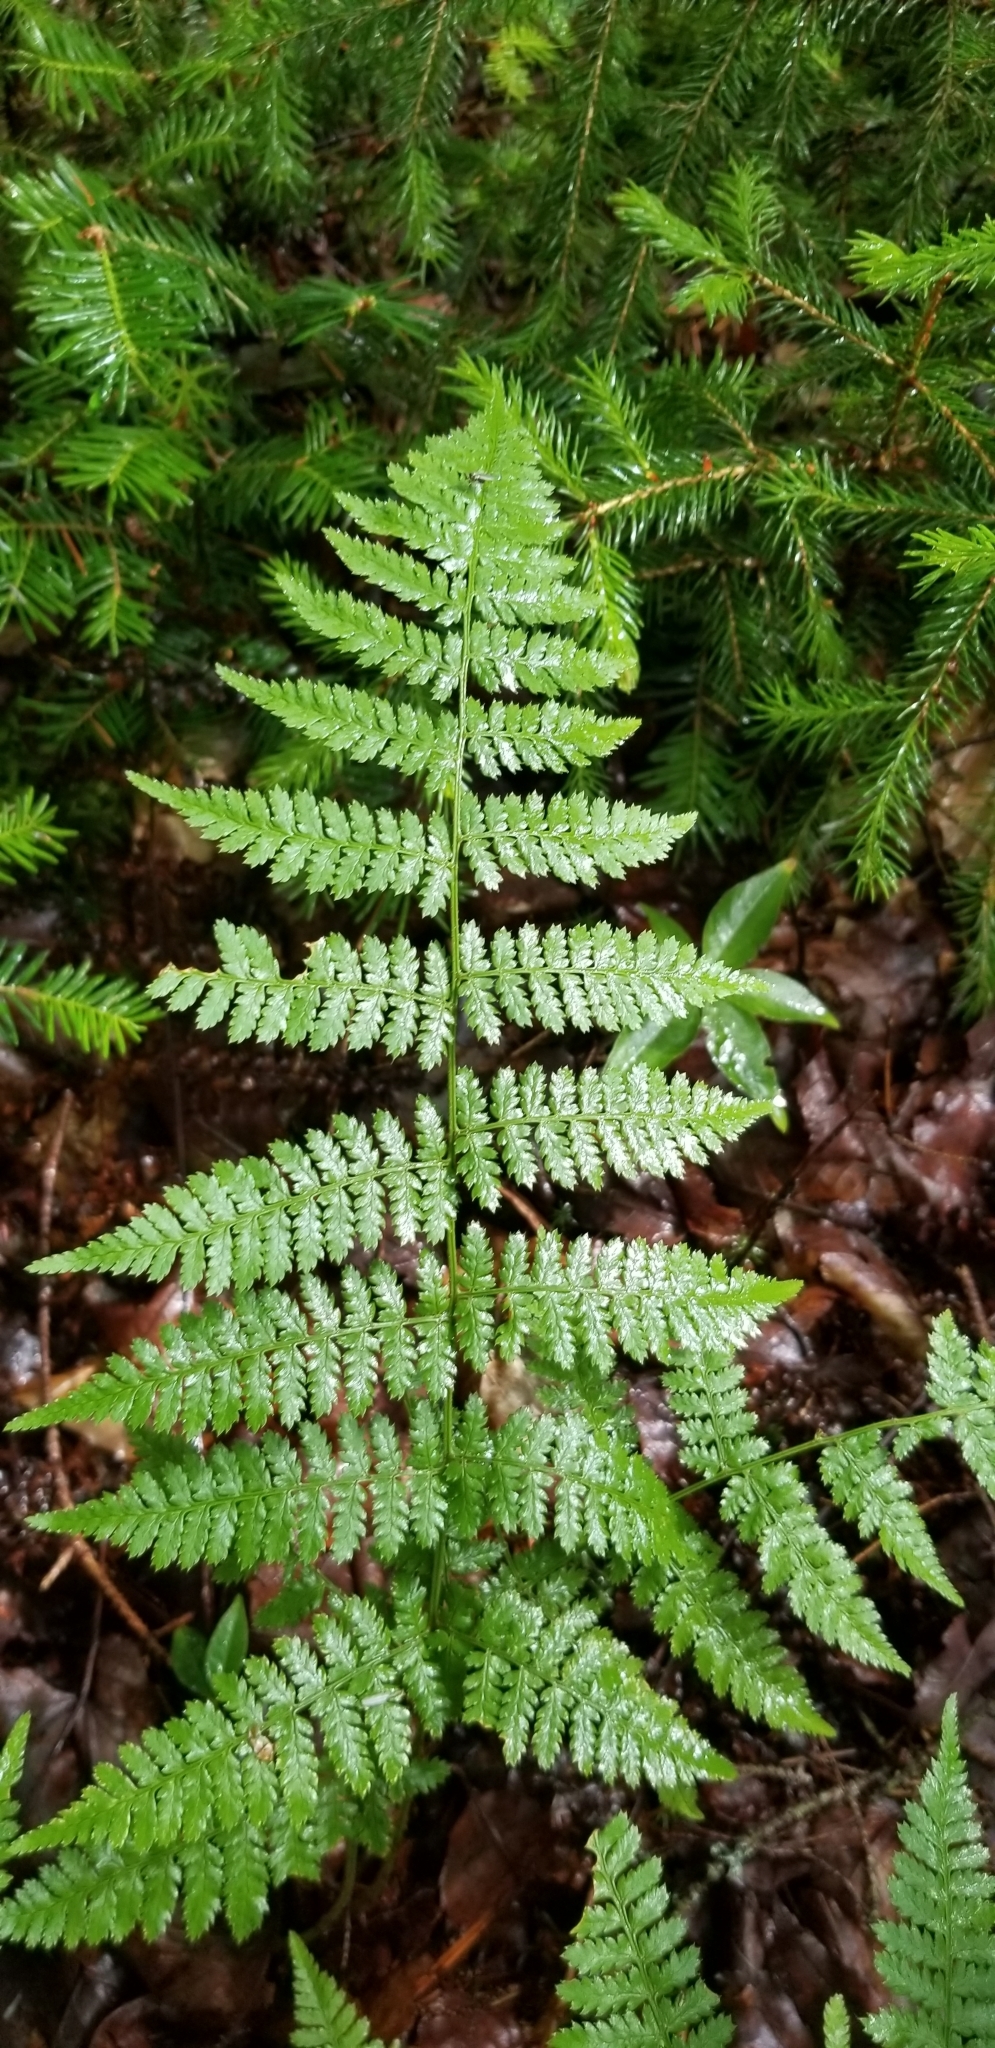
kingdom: Plantae
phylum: Tracheophyta
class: Polypodiopsida
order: Polypodiales
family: Dryopteridaceae
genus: Dryopteris
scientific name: Dryopteris intermedia
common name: Evergreen wood fern
